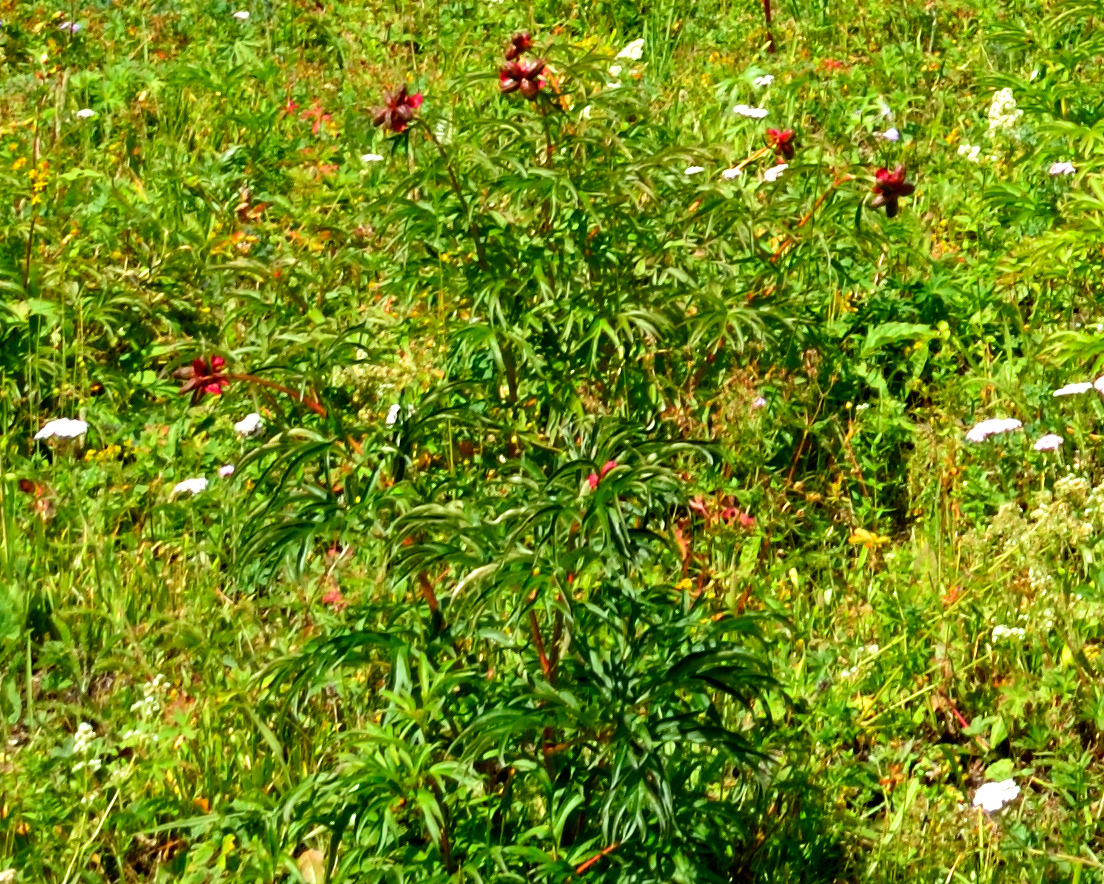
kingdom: Plantae
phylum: Tracheophyta
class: Magnoliopsida
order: Saxifragales
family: Paeoniaceae
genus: Paeonia
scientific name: Paeonia anomala
